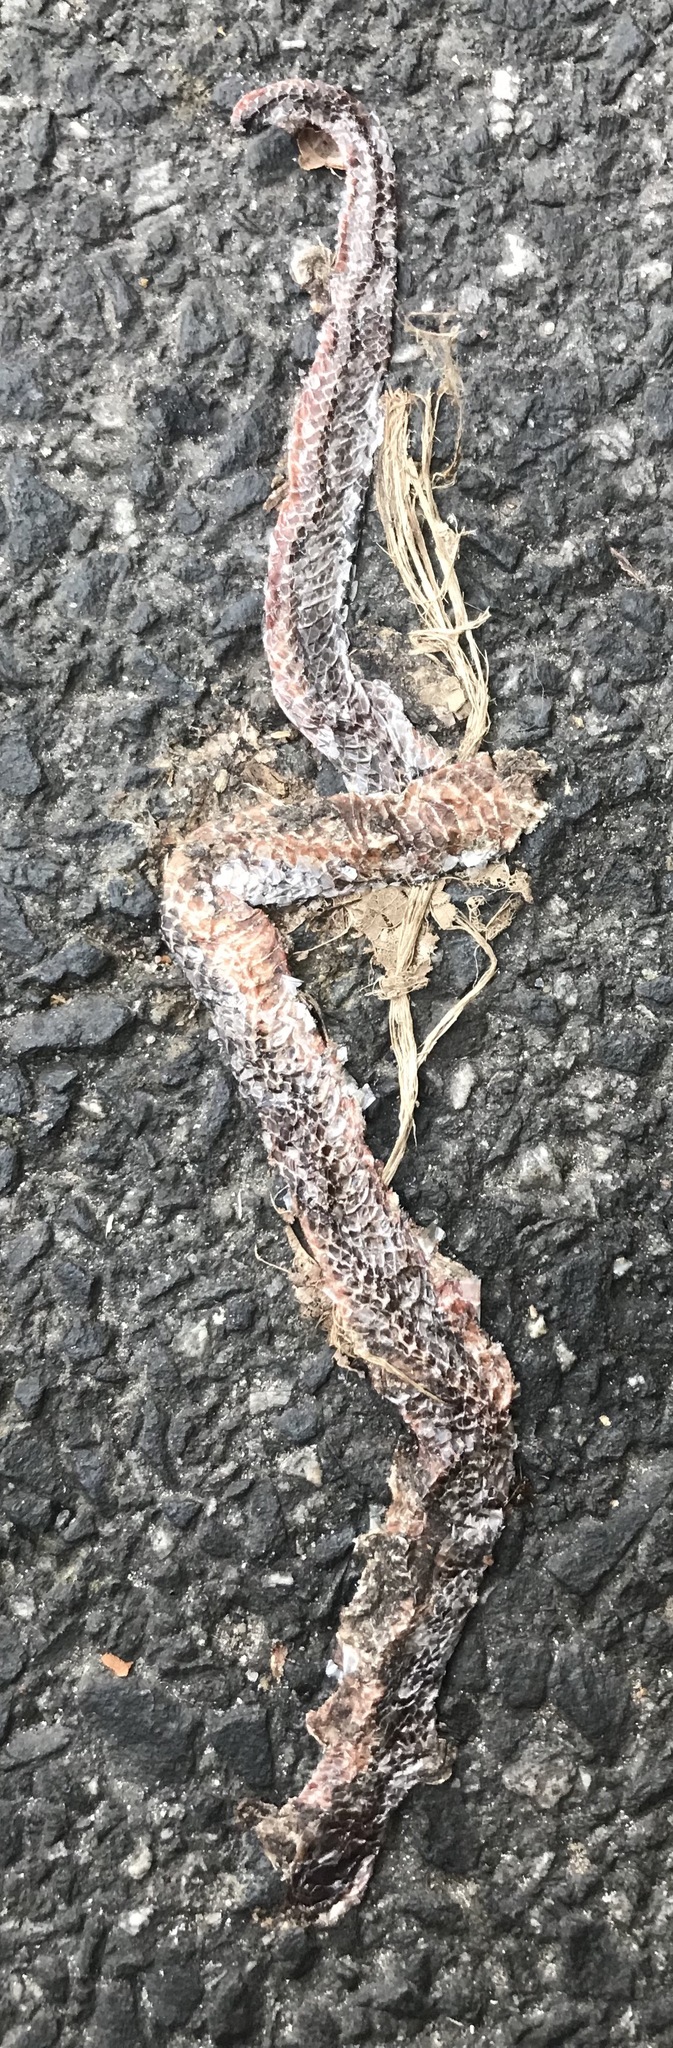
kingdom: Animalia
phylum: Chordata
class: Squamata
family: Colubridae
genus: Carphophis
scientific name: Carphophis amoenus
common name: Eastern worm snake
